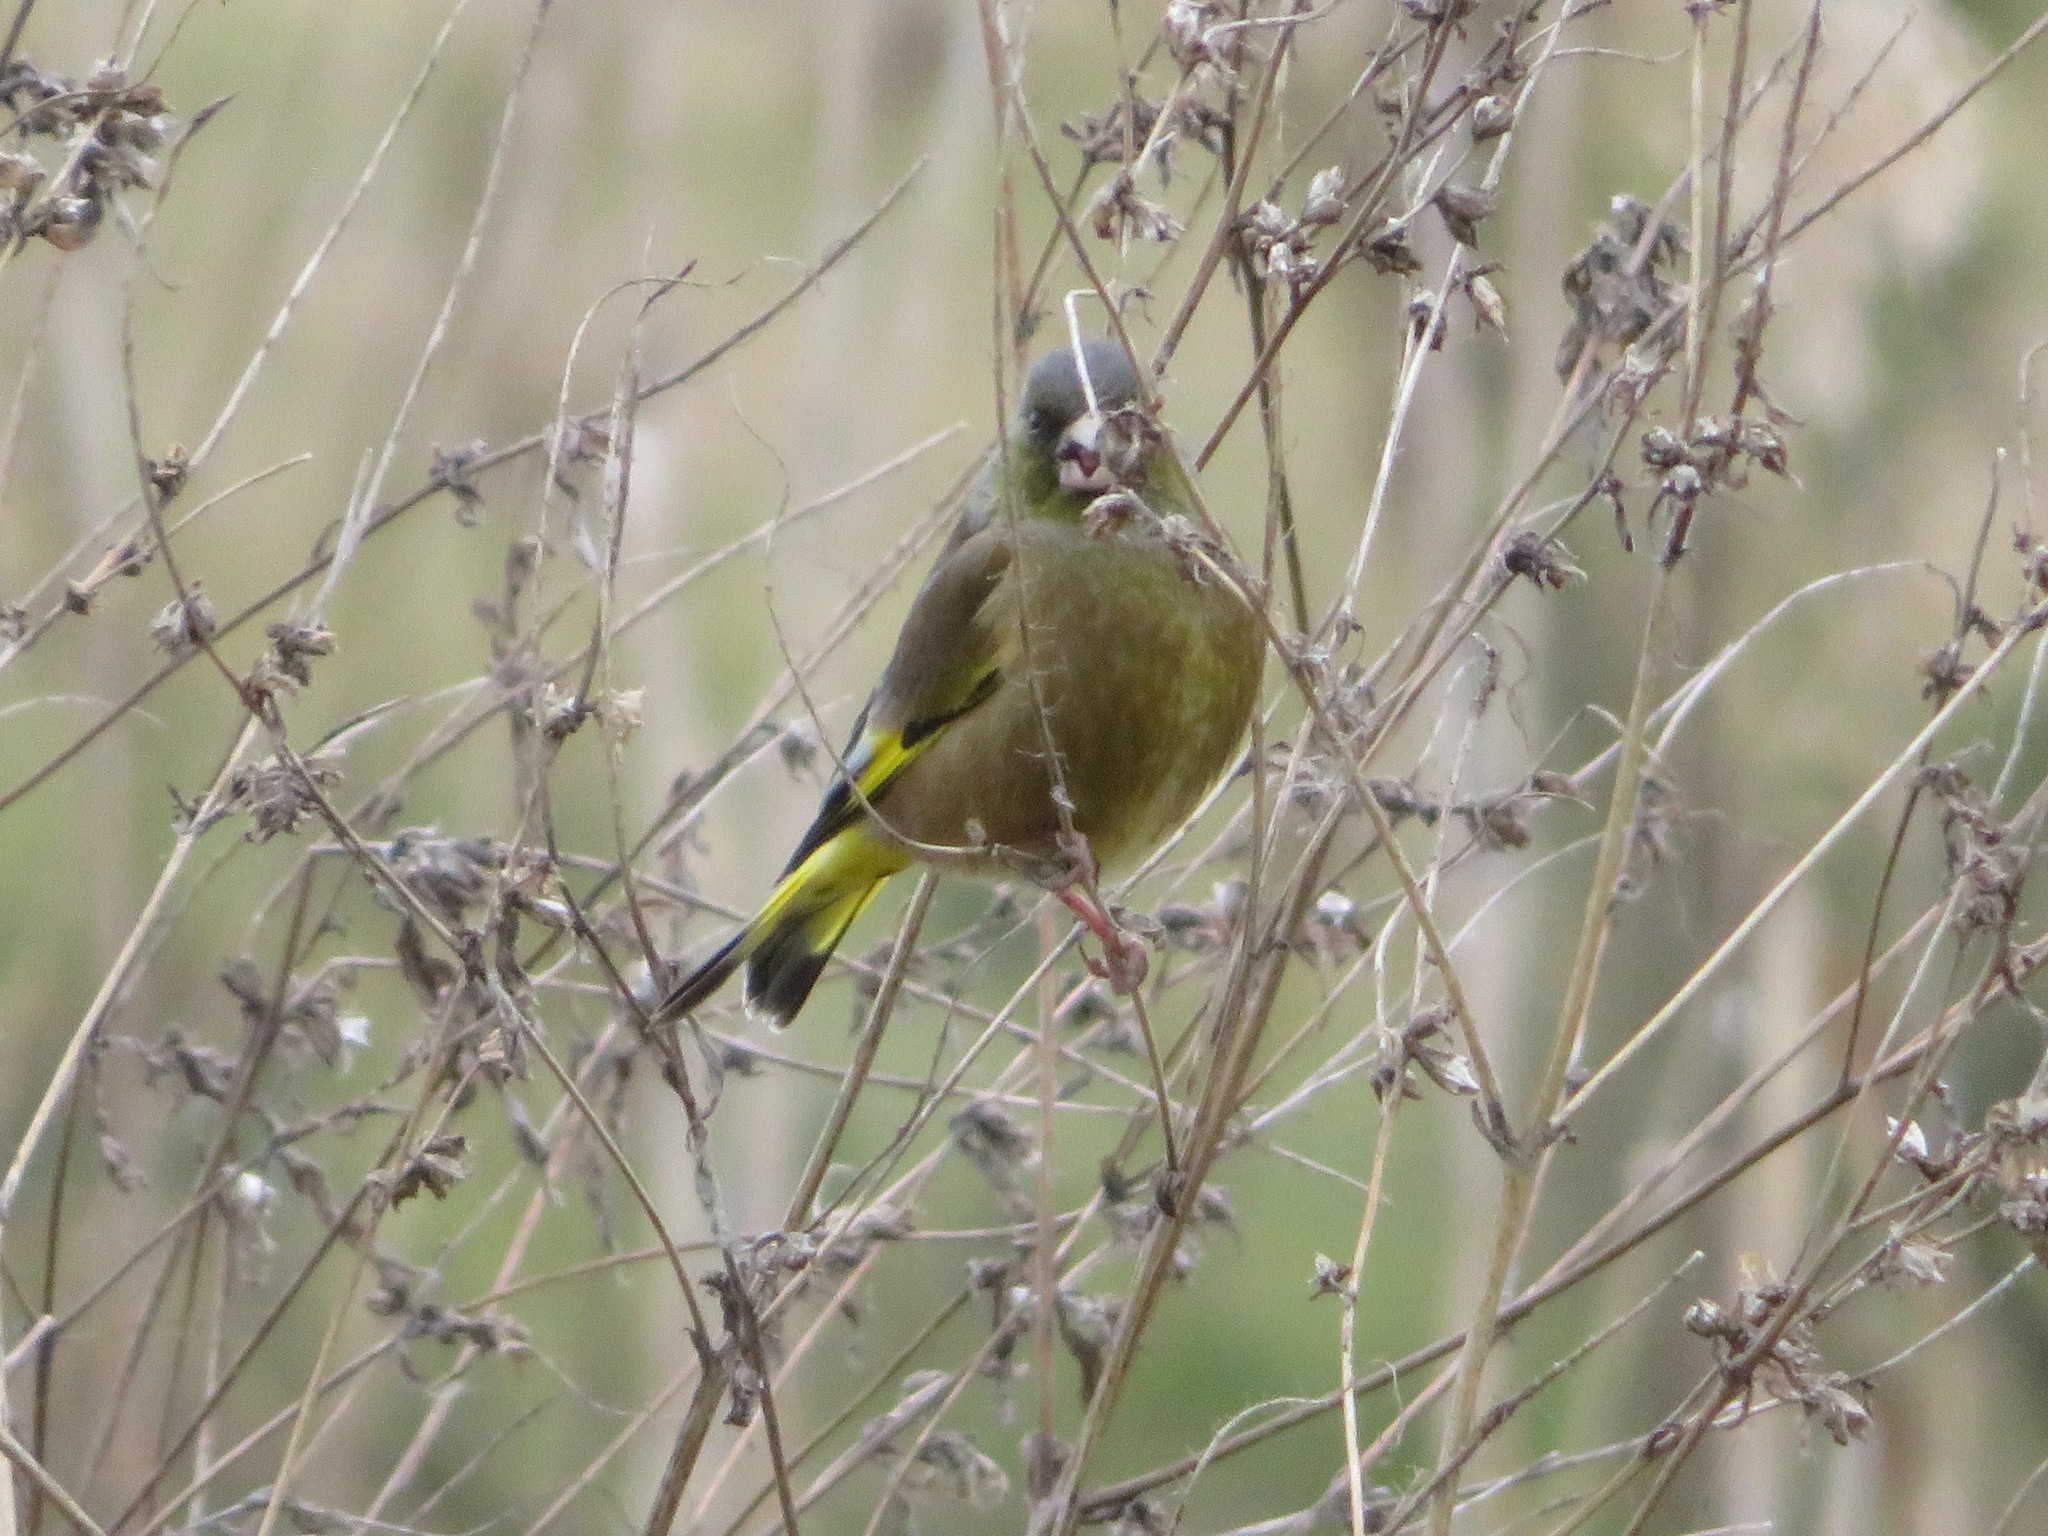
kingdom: Plantae
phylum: Tracheophyta
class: Liliopsida
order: Poales
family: Poaceae
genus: Chloris
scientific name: Chloris sinica
